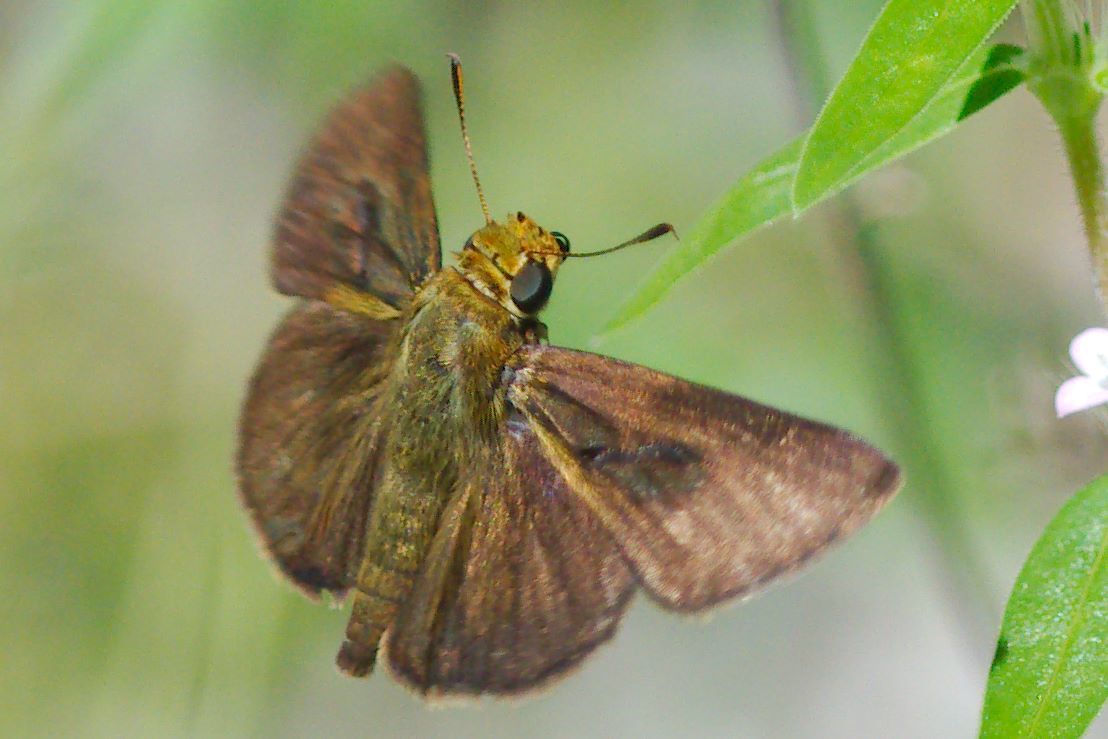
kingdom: Animalia
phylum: Arthropoda
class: Insecta
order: Lepidoptera
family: Hesperiidae
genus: Euphyes
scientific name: Euphyes vestris
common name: Dun skipper
